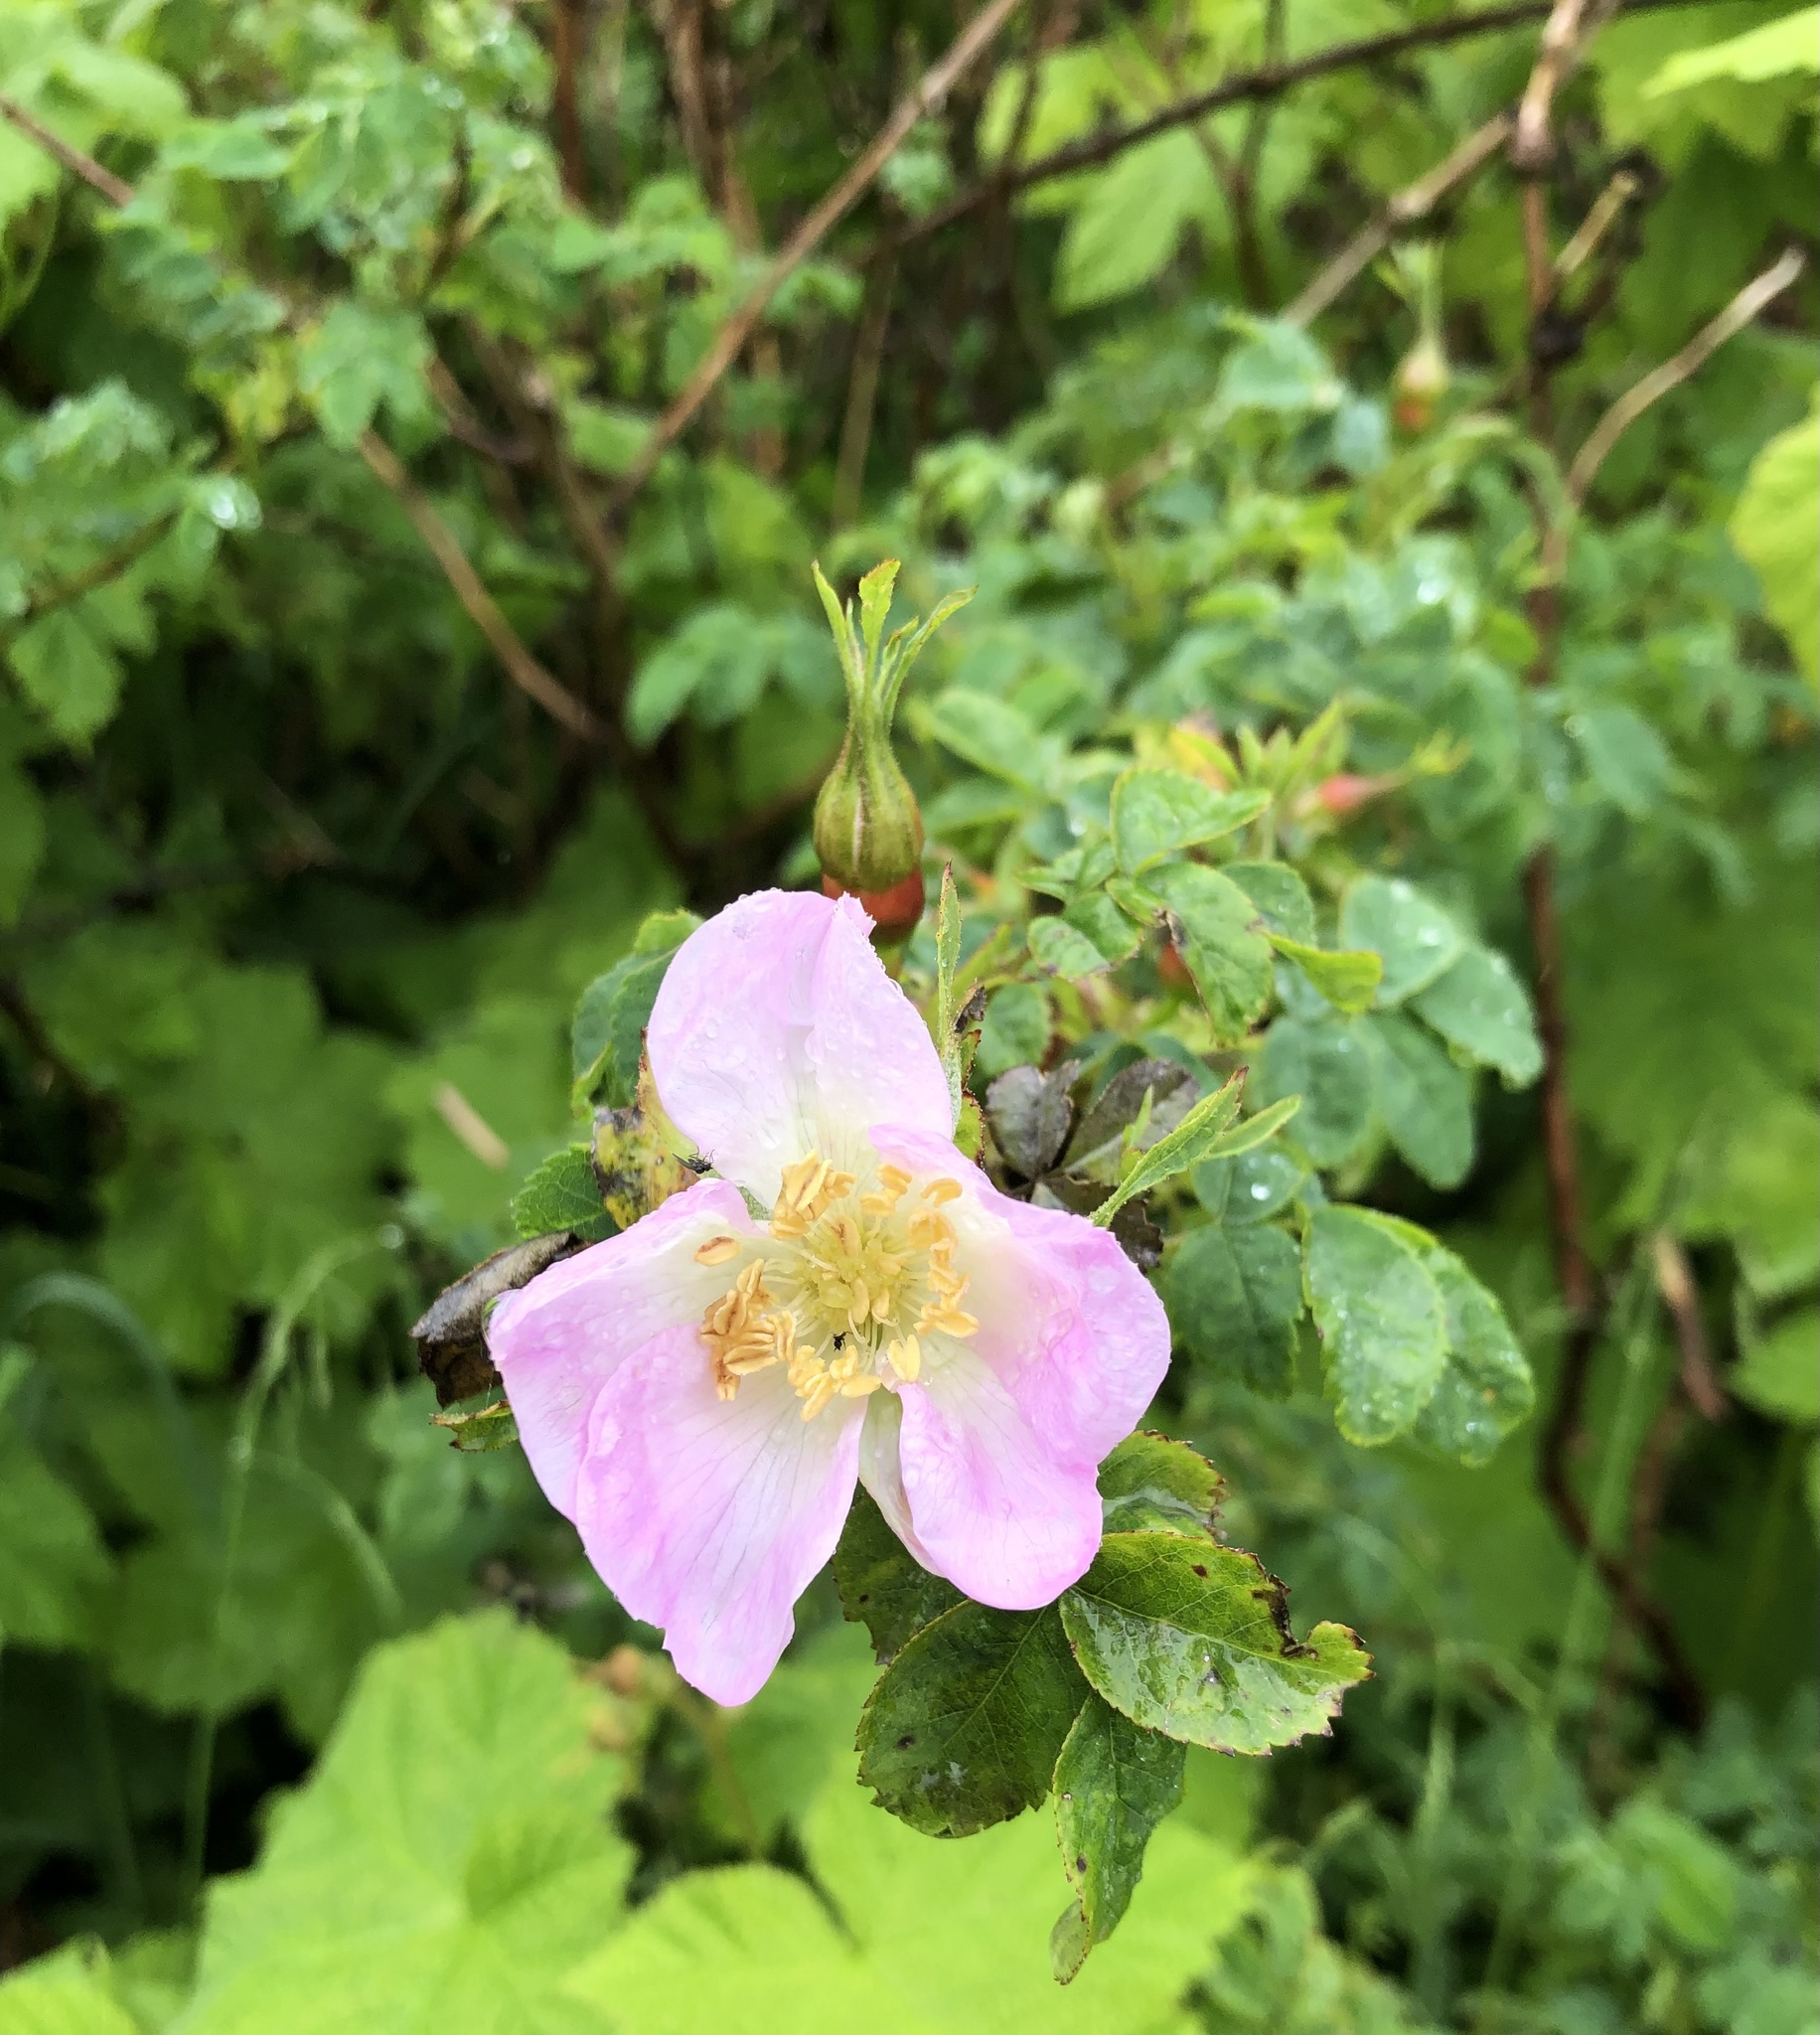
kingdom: Plantae
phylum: Tracheophyta
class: Magnoliopsida
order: Rosales
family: Rosaceae
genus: Rosa
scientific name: Rosa nutkana
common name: Nootka rose
